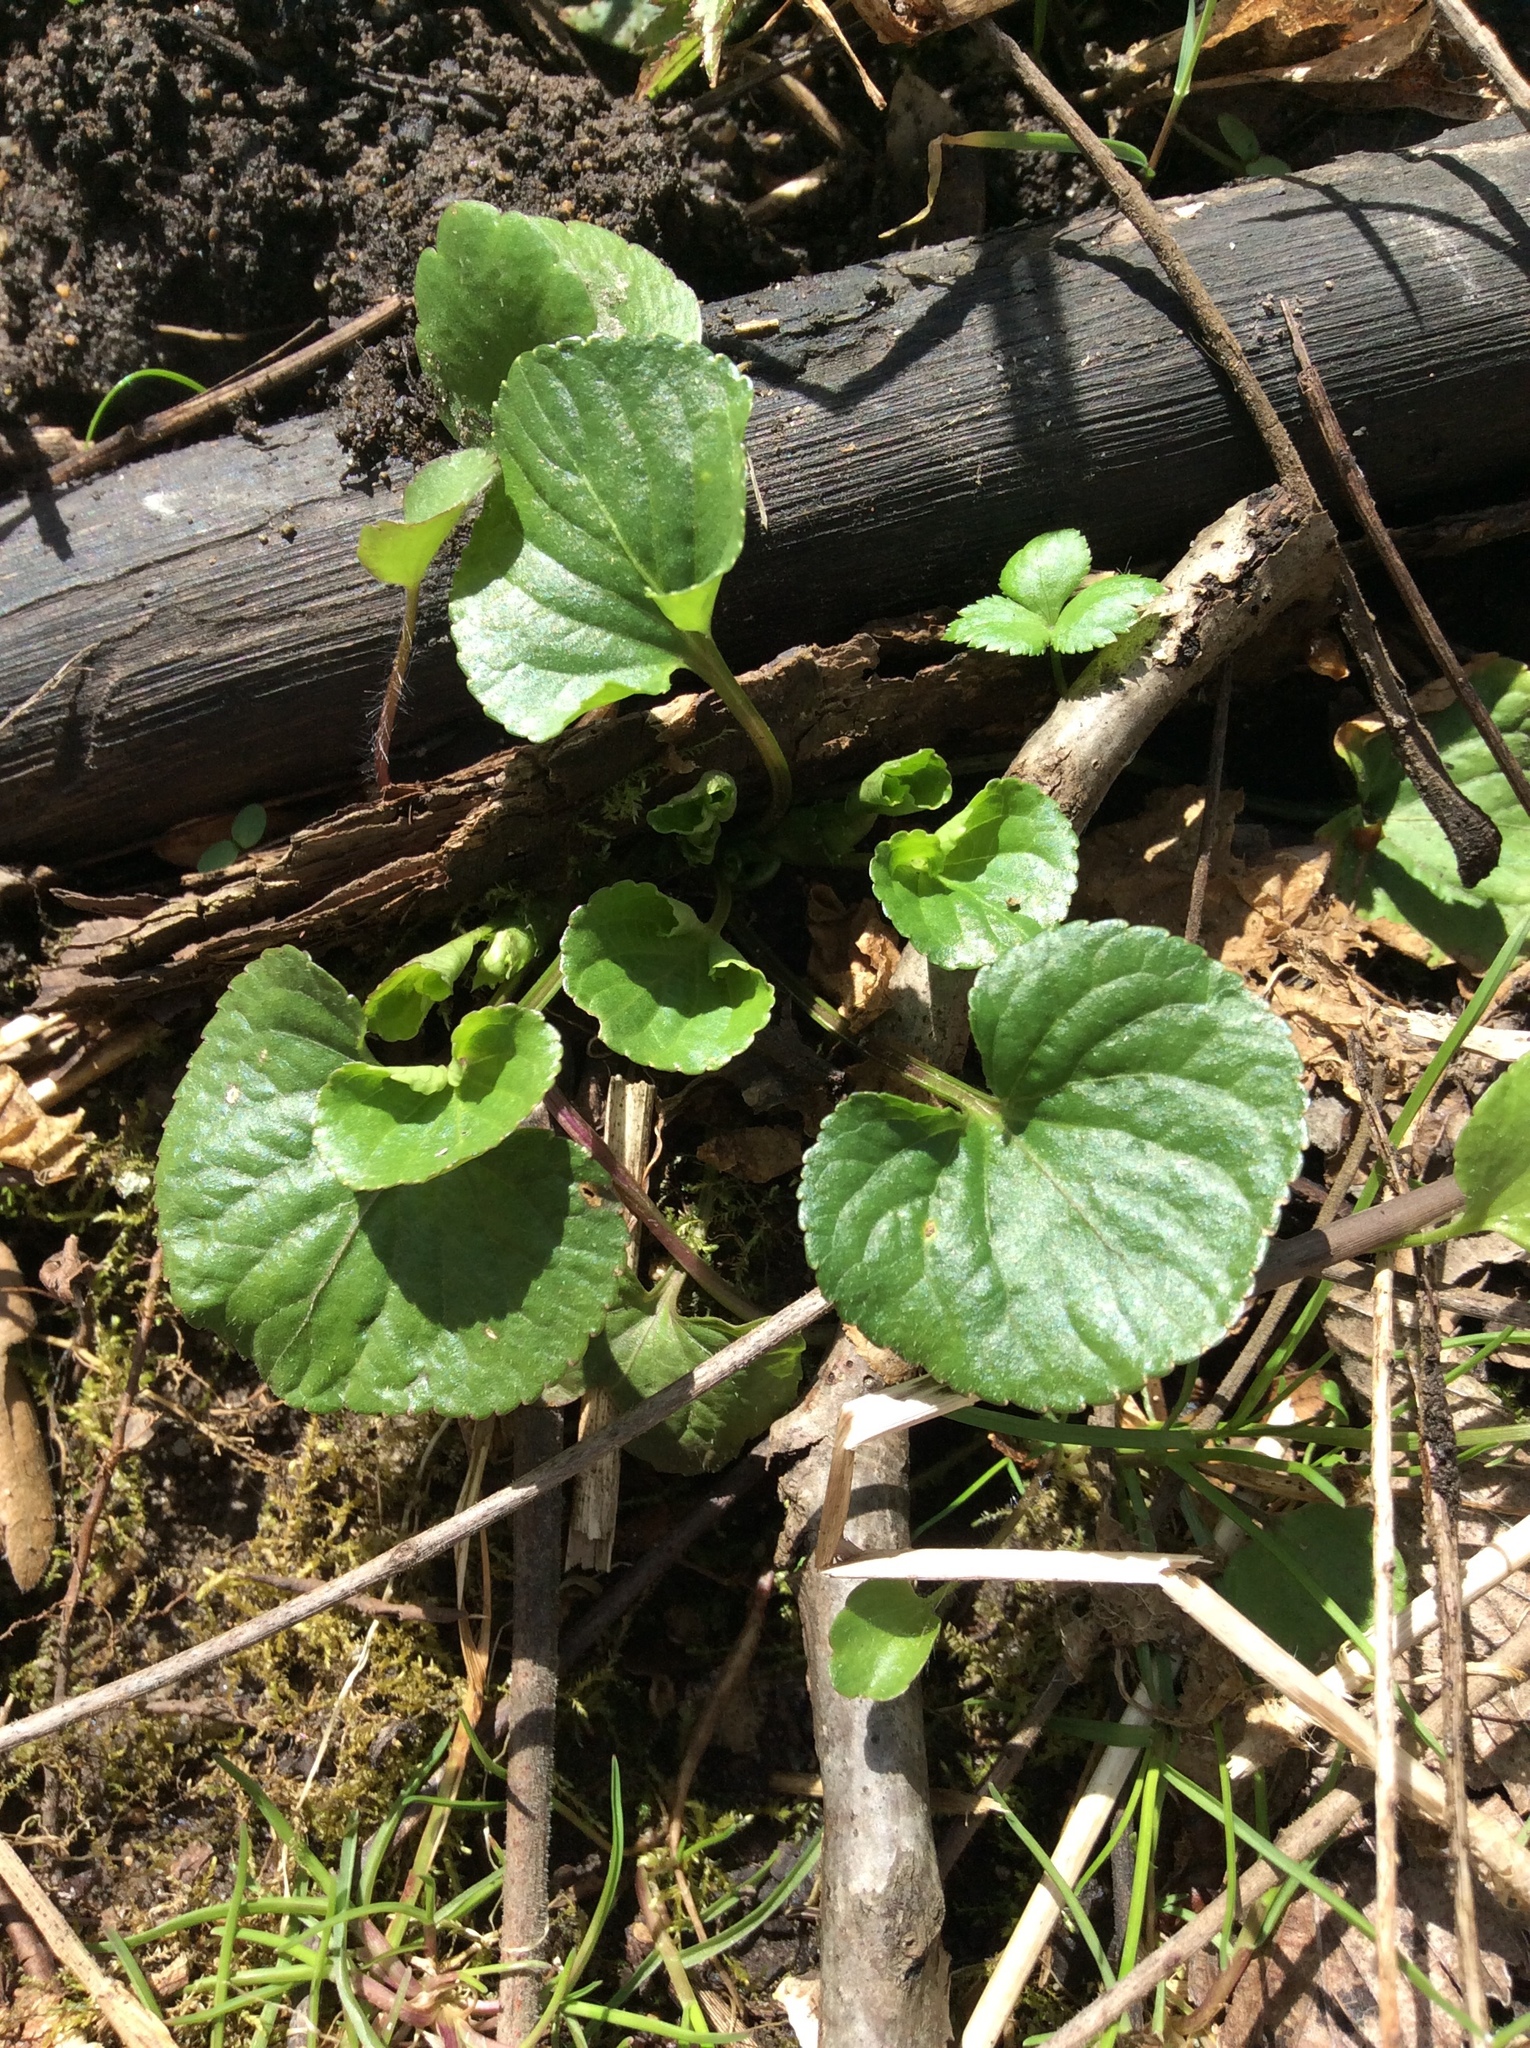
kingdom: Plantae
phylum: Tracheophyta
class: Magnoliopsida
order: Malpighiales
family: Violaceae
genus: Viola
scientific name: Viola sororia
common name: Dooryard violet
